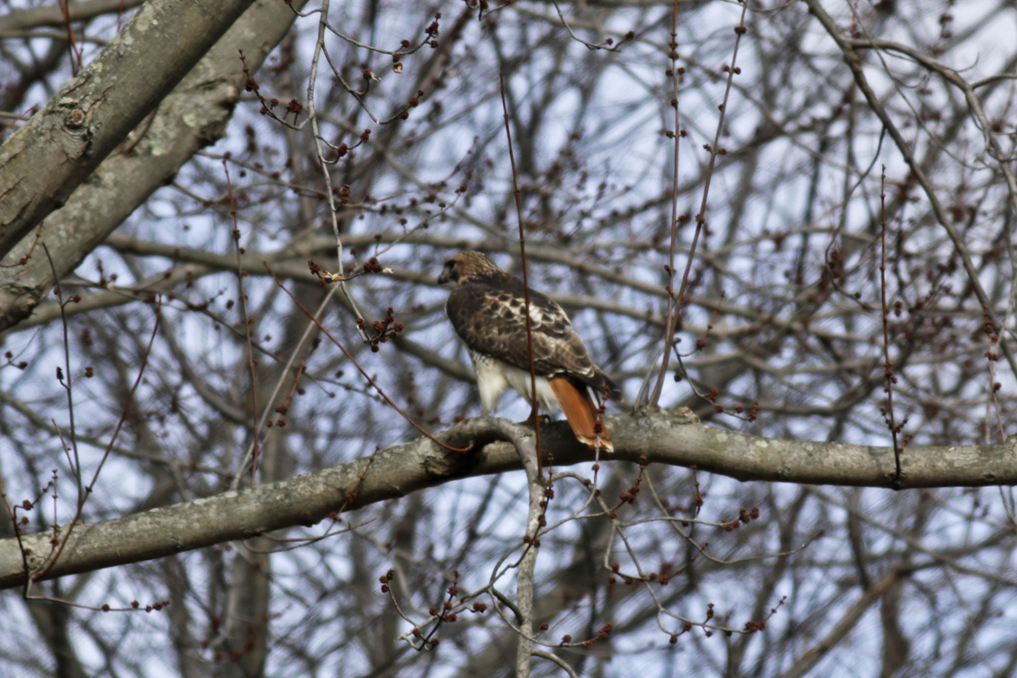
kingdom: Animalia
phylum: Chordata
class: Aves
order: Accipitriformes
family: Accipitridae
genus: Buteo
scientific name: Buteo jamaicensis
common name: Red-tailed hawk
